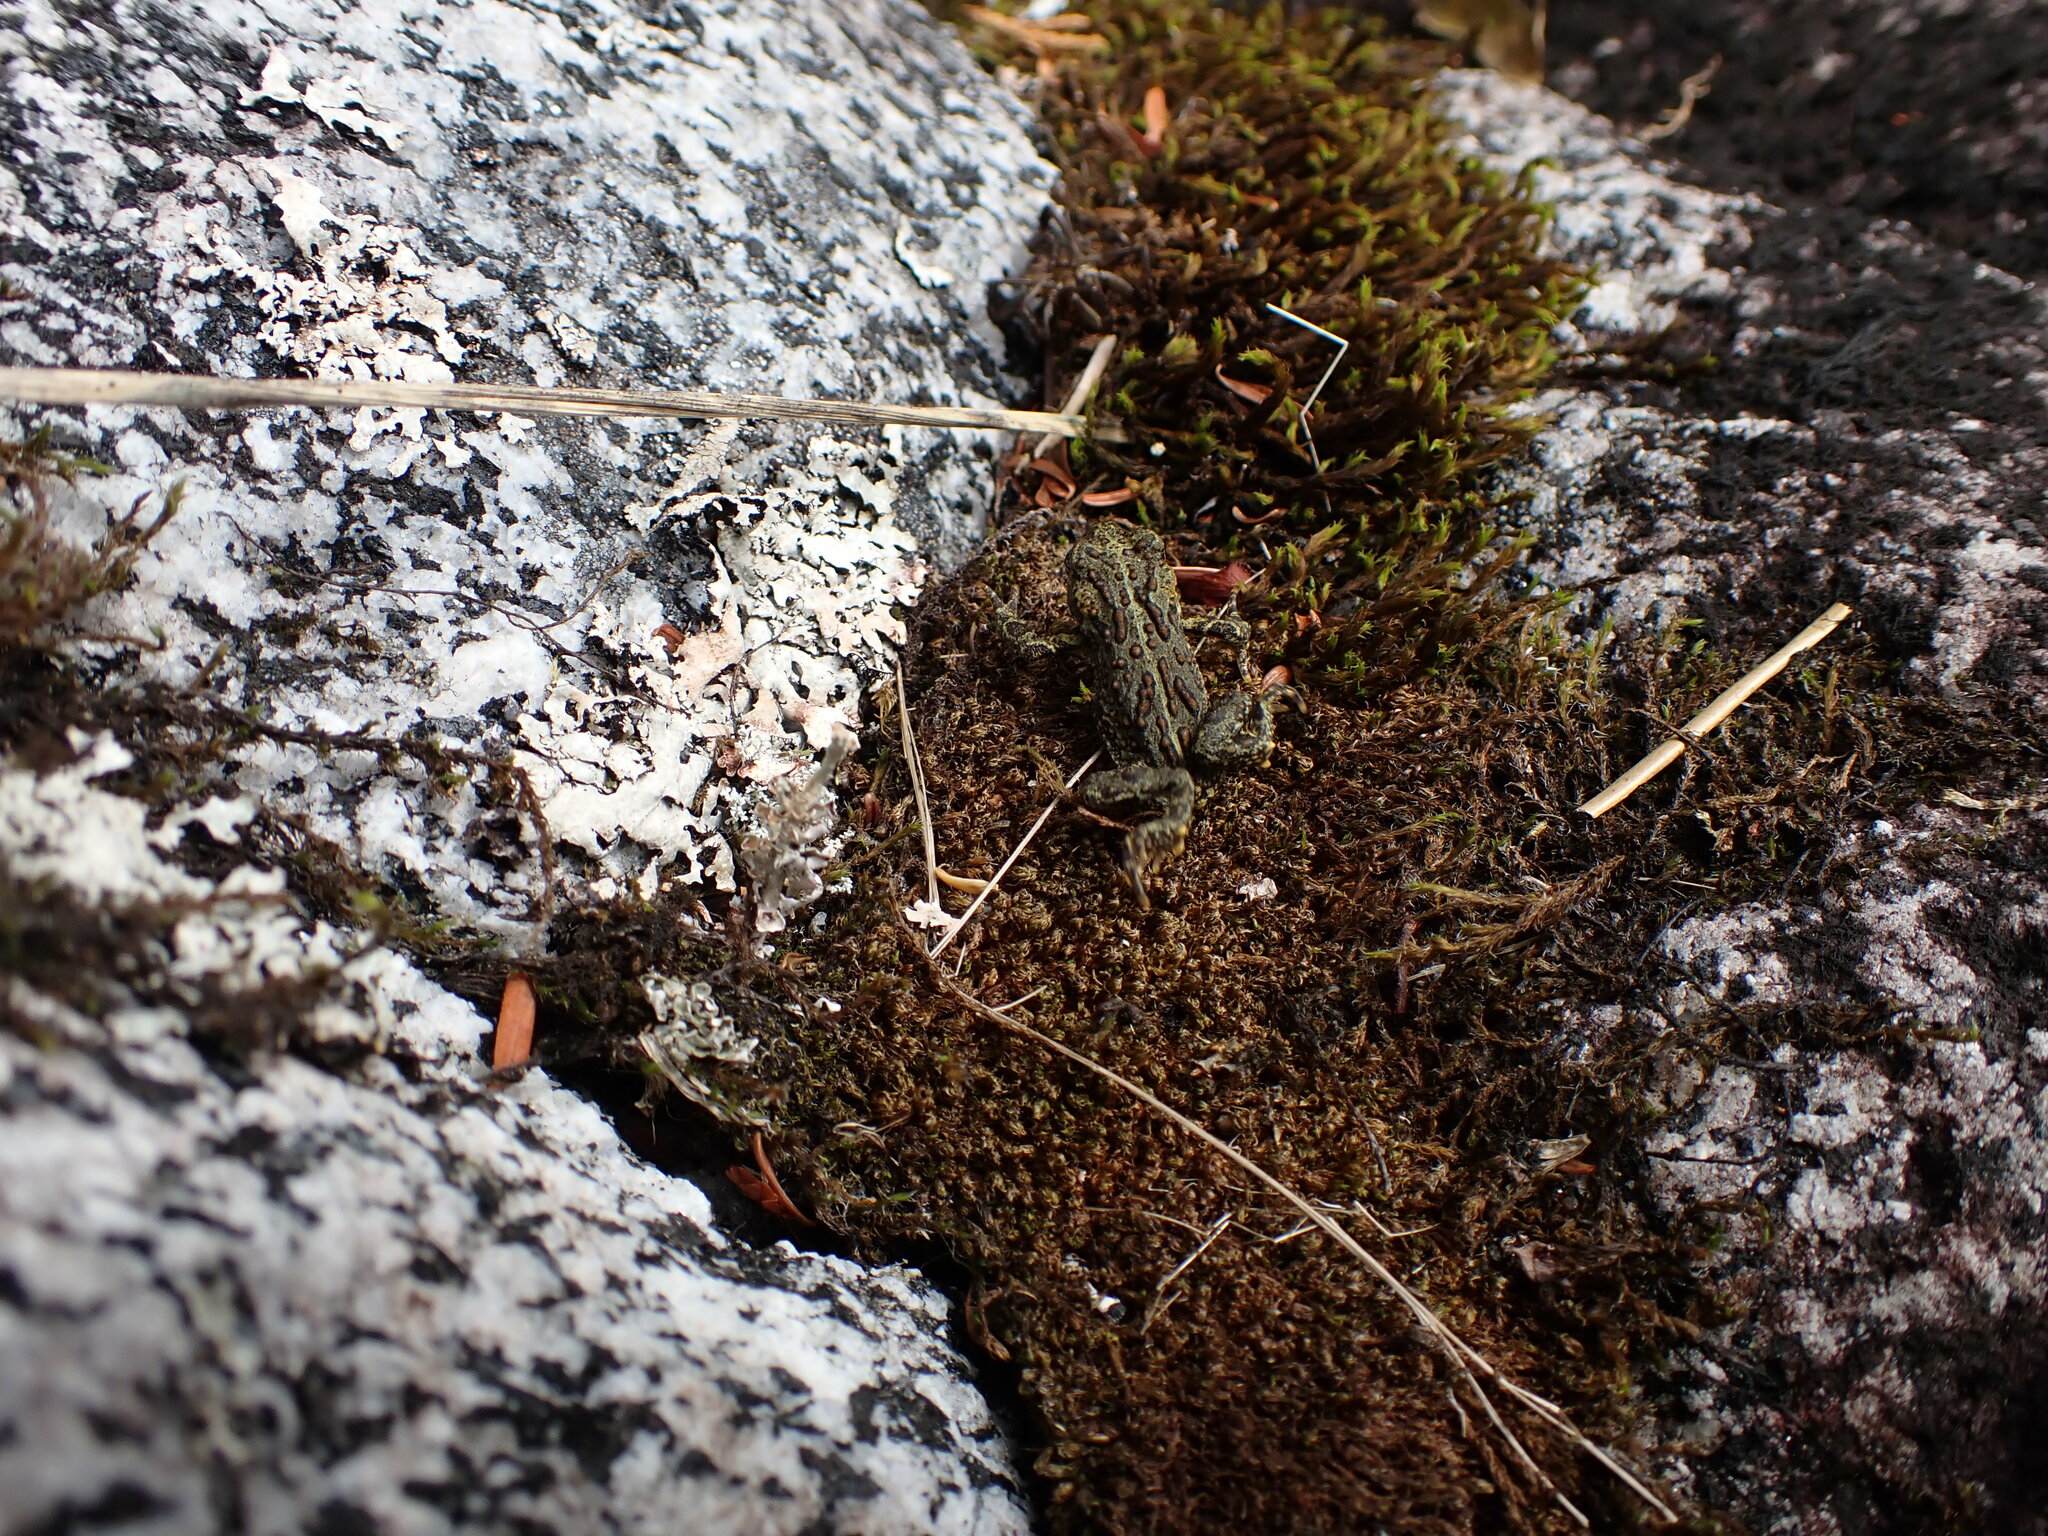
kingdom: Animalia
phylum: Chordata
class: Amphibia
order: Anura
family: Bufonidae
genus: Anaxyrus
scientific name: Anaxyrus boreas
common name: Western toad
